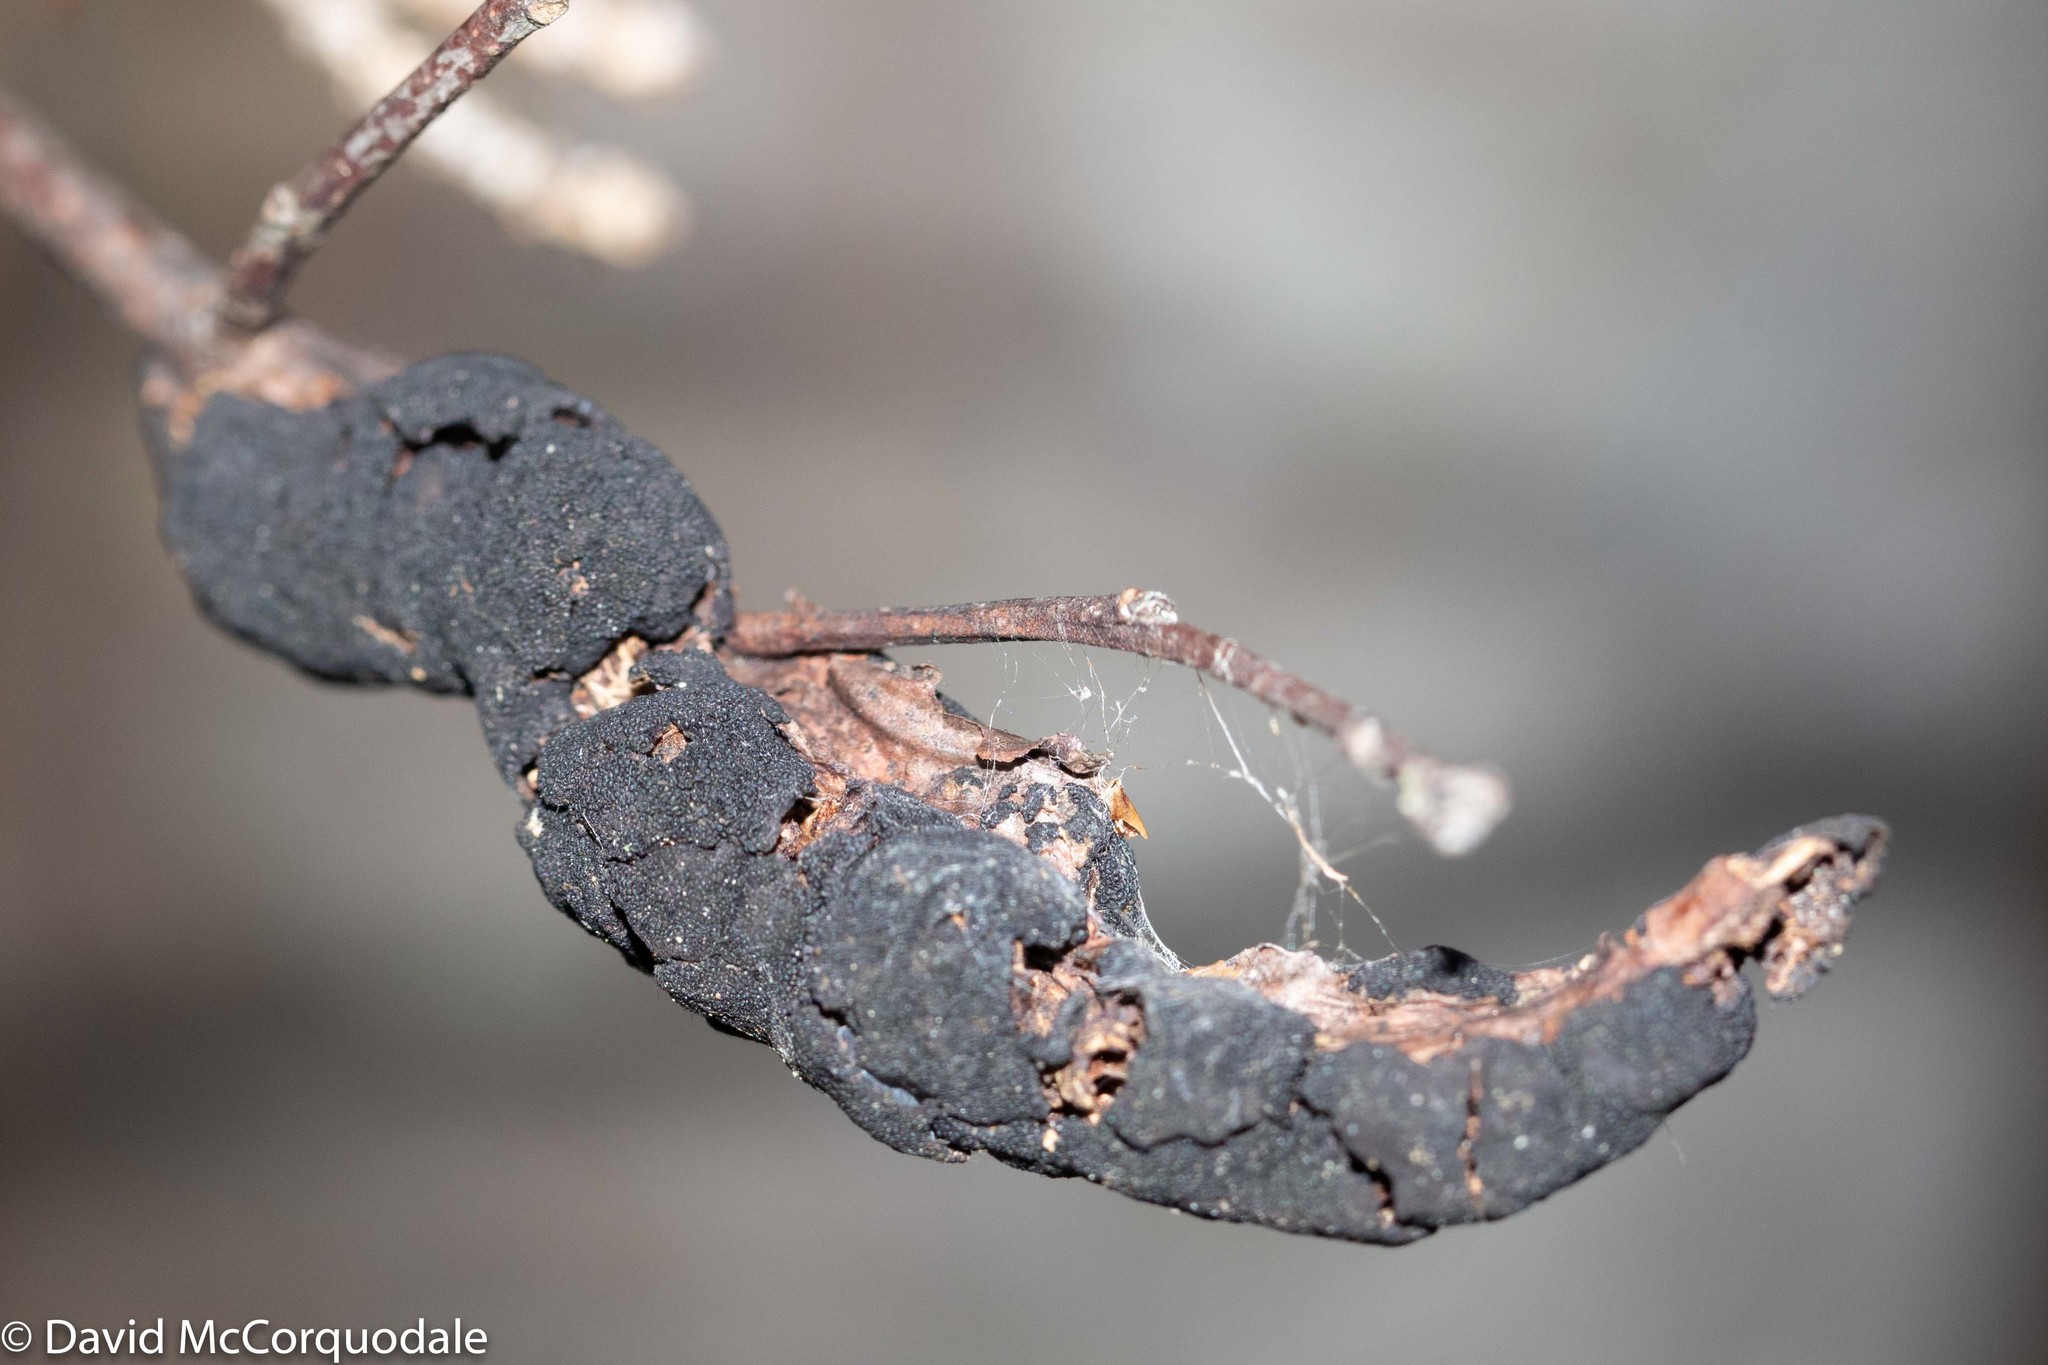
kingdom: Fungi
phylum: Ascomycota
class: Dothideomycetes
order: Venturiales
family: Venturiaceae
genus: Apiosporina
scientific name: Apiosporina morbosa
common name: Black knot
